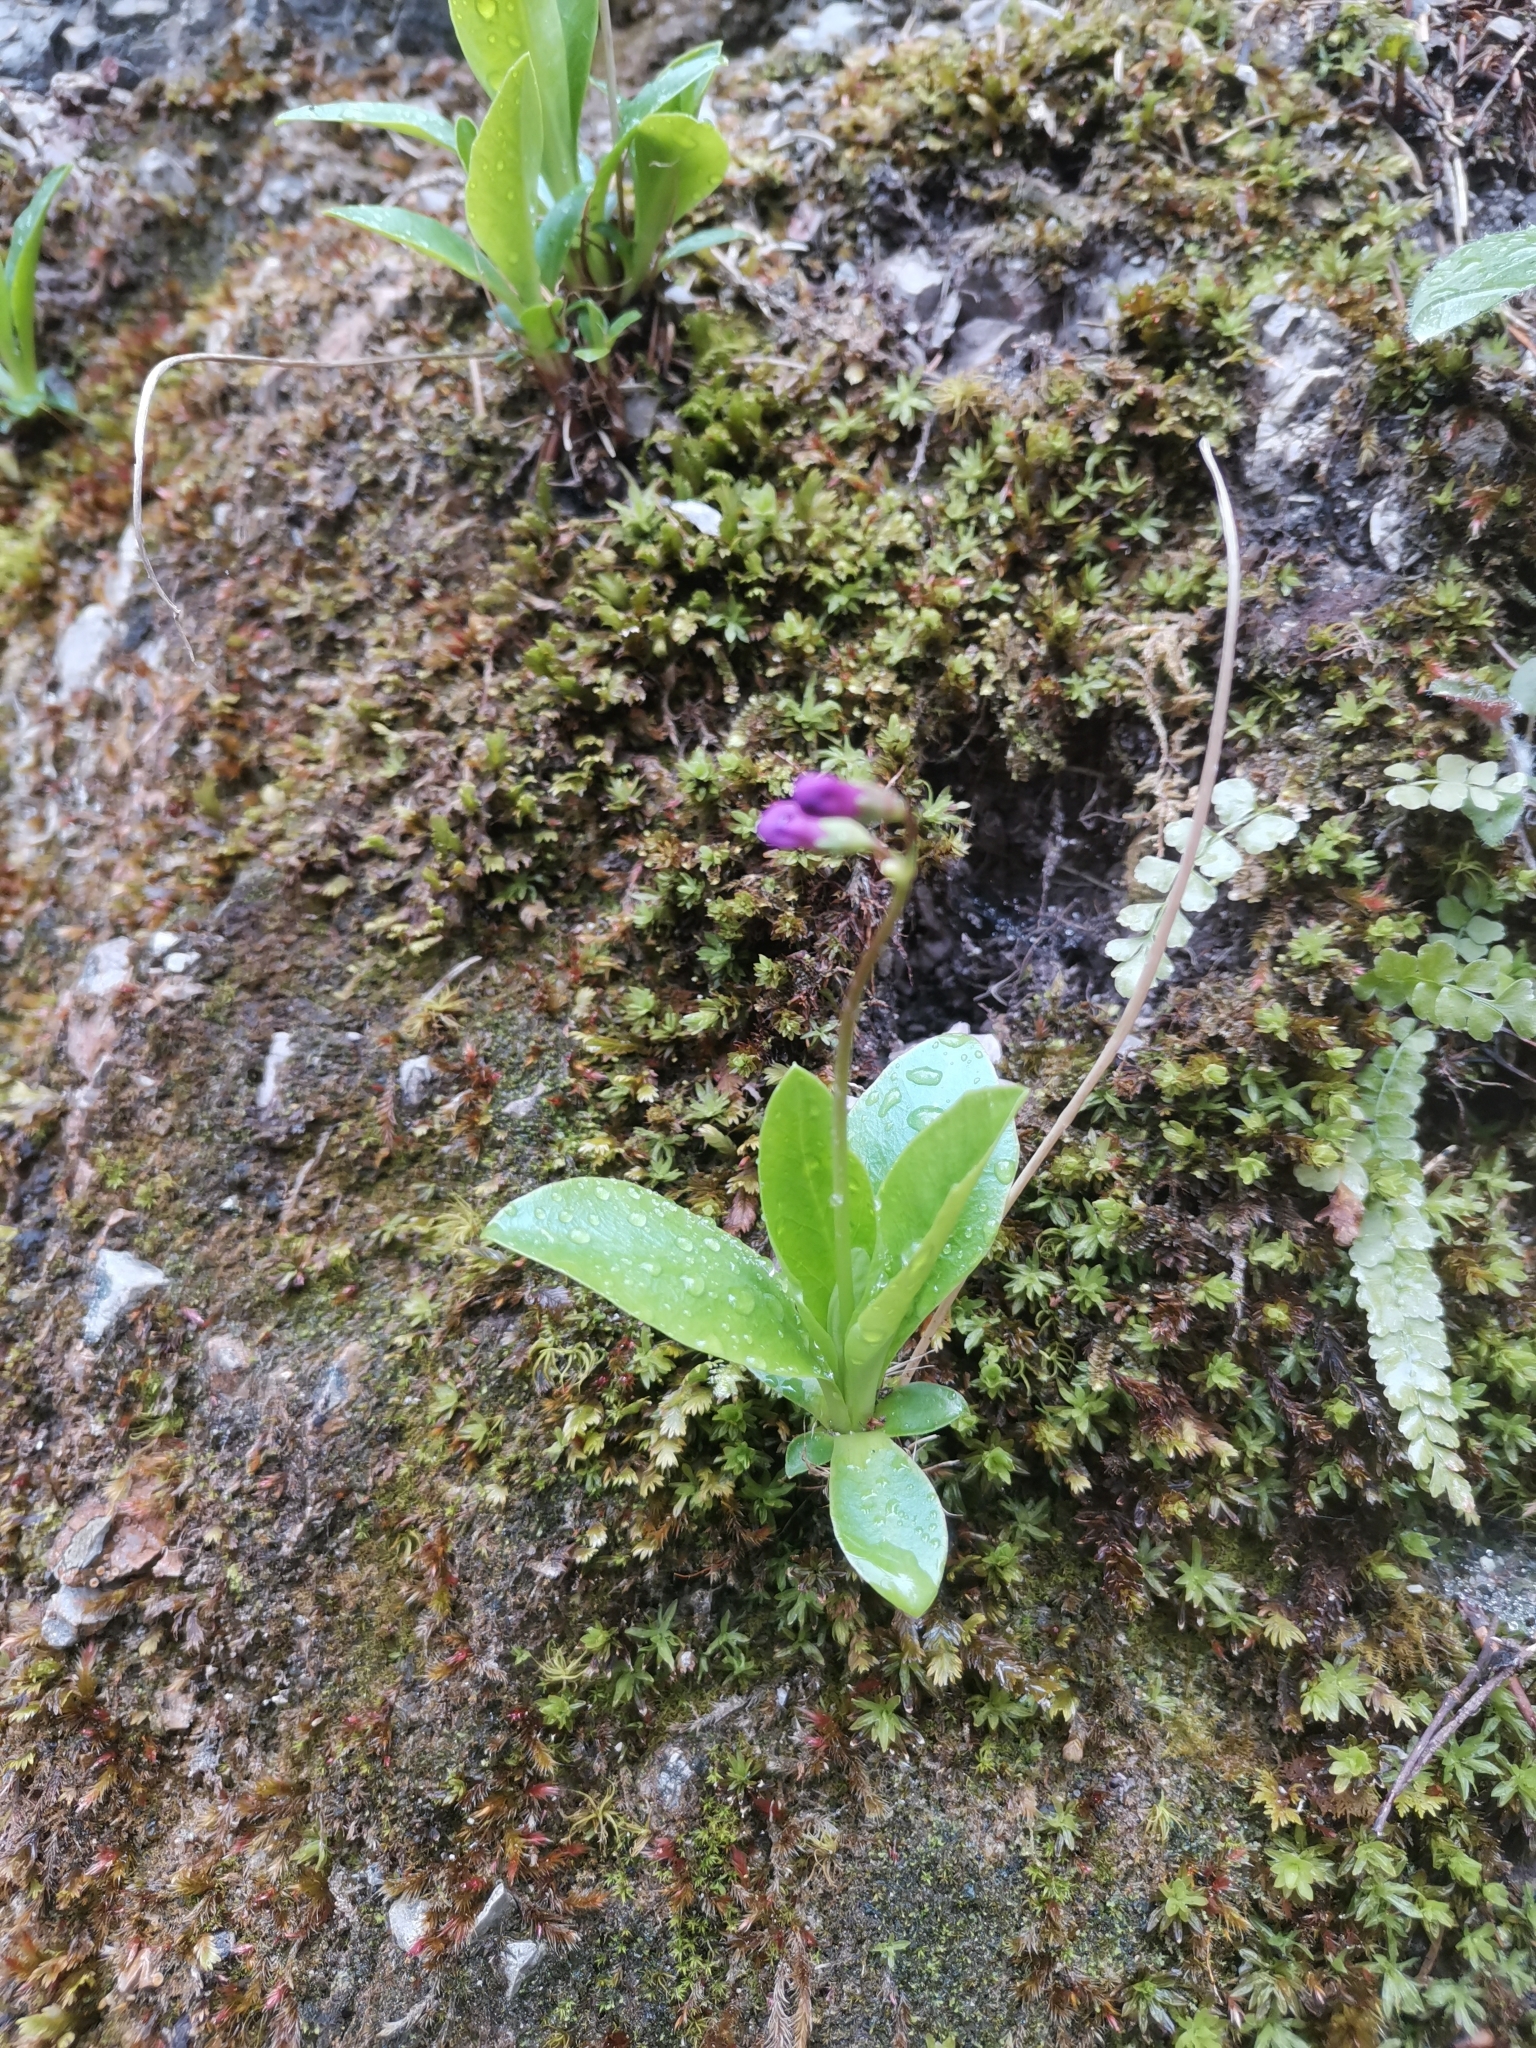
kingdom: Plantae
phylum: Tracheophyta
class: Magnoliopsida
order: Ericales
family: Primulaceae
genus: Primula
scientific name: Primula carniolica
